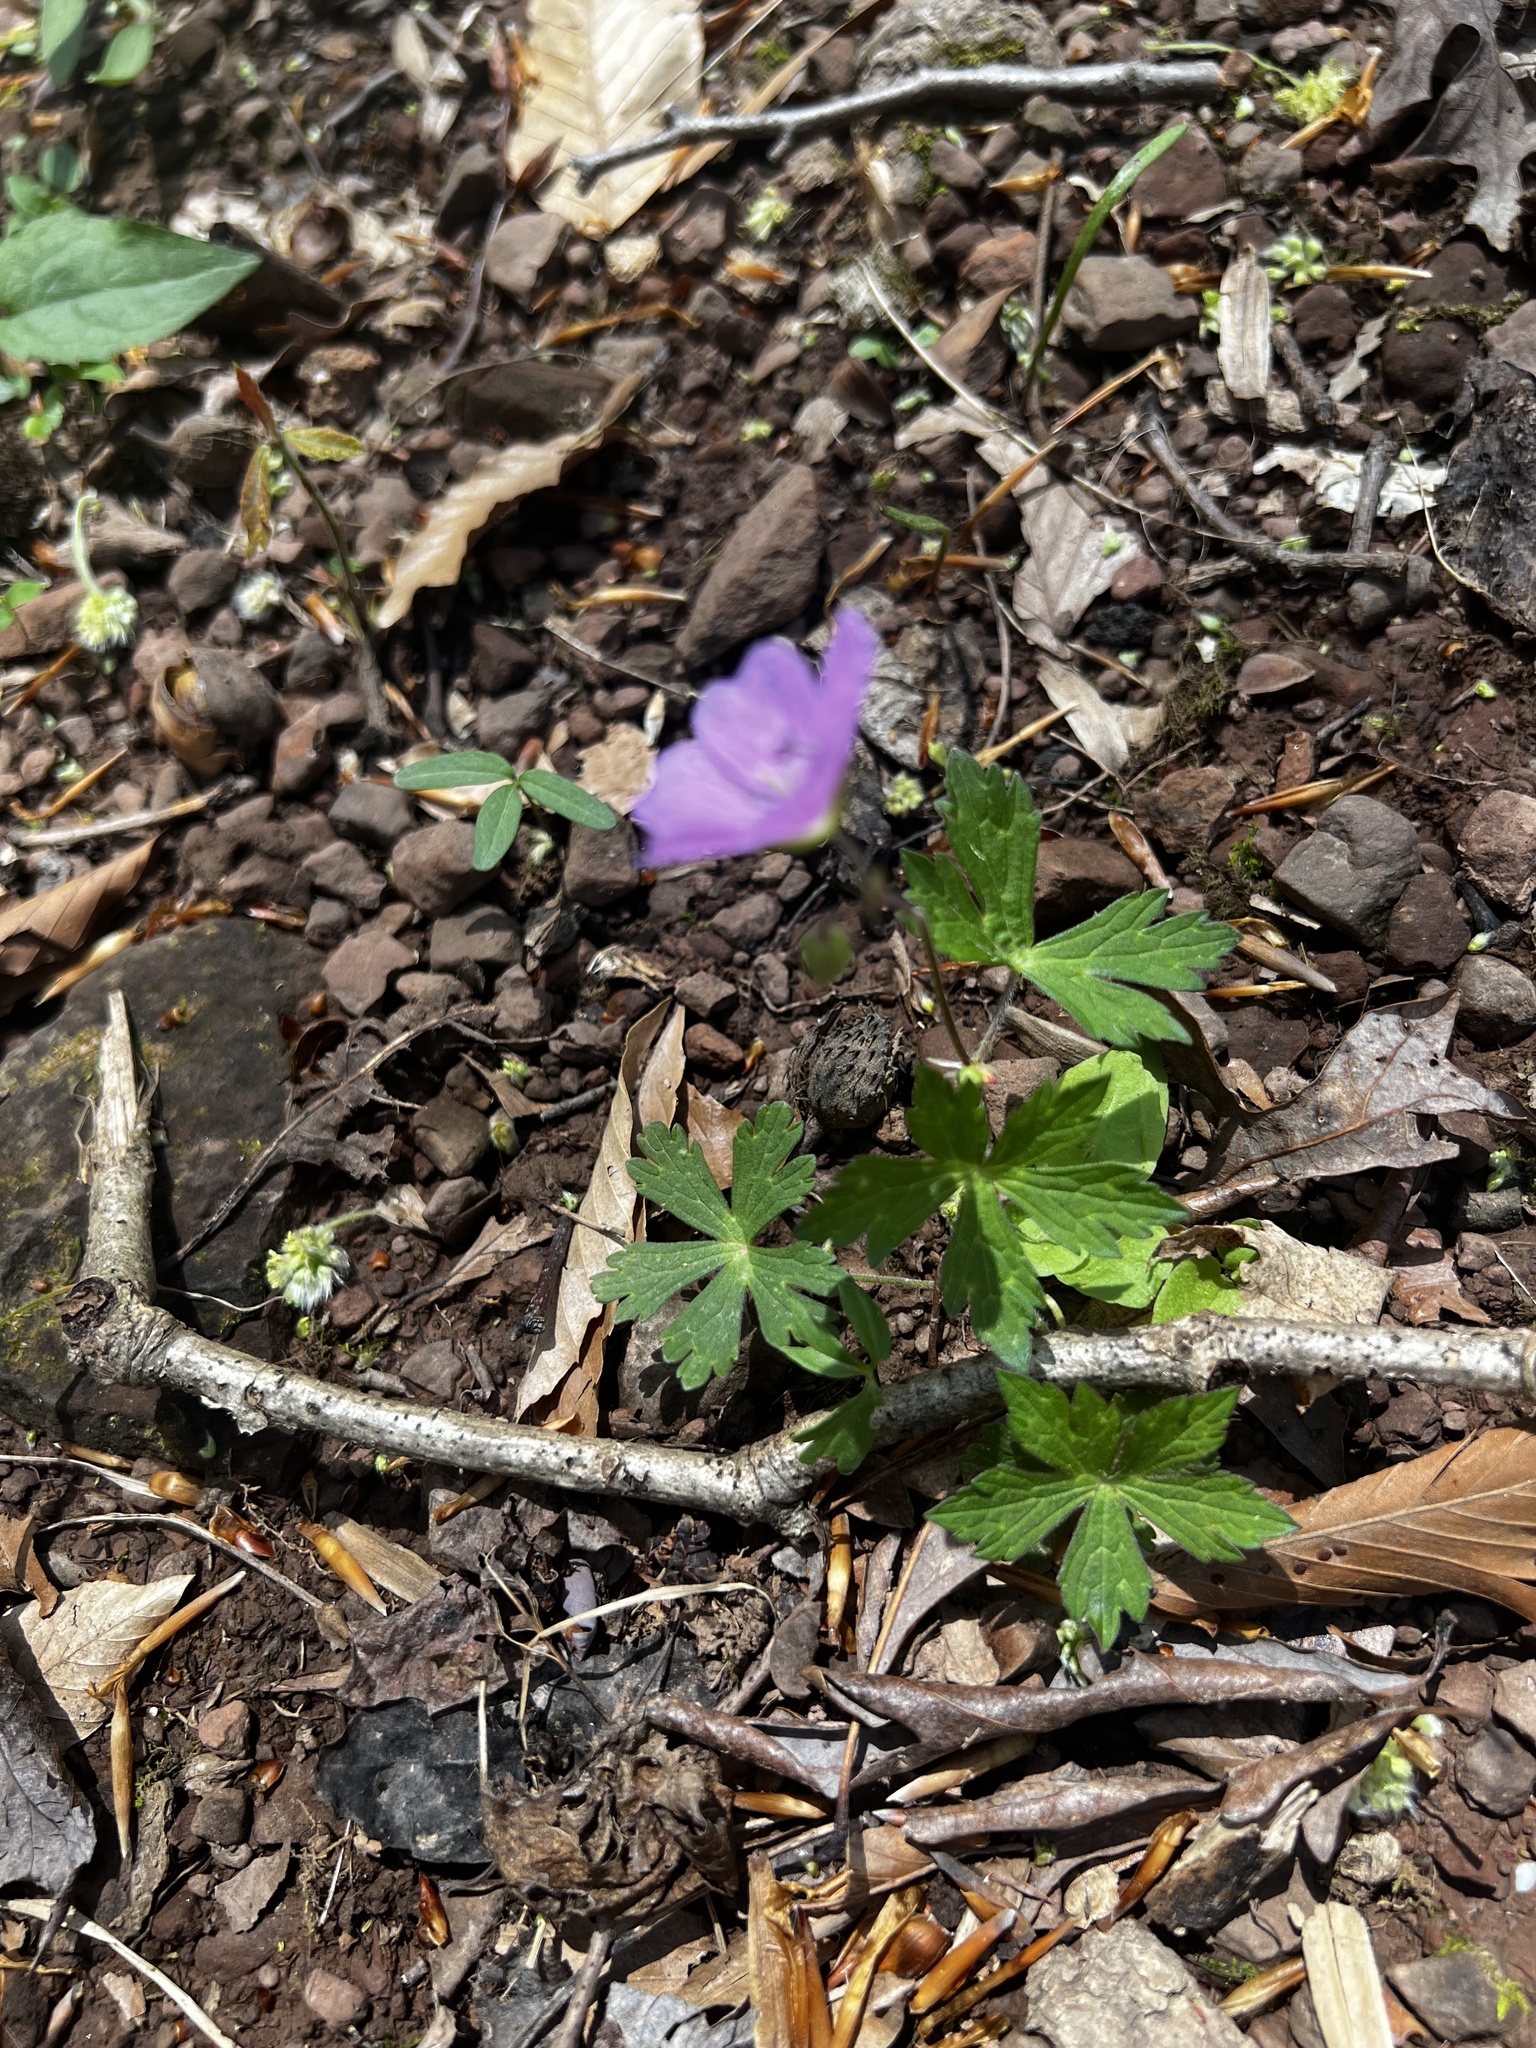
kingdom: Plantae
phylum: Tracheophyta
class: Magnoliopsida
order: Geraniales
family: Geraniaceae
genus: Geranium
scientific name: Geranium maculatum
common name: Spotted geranium
